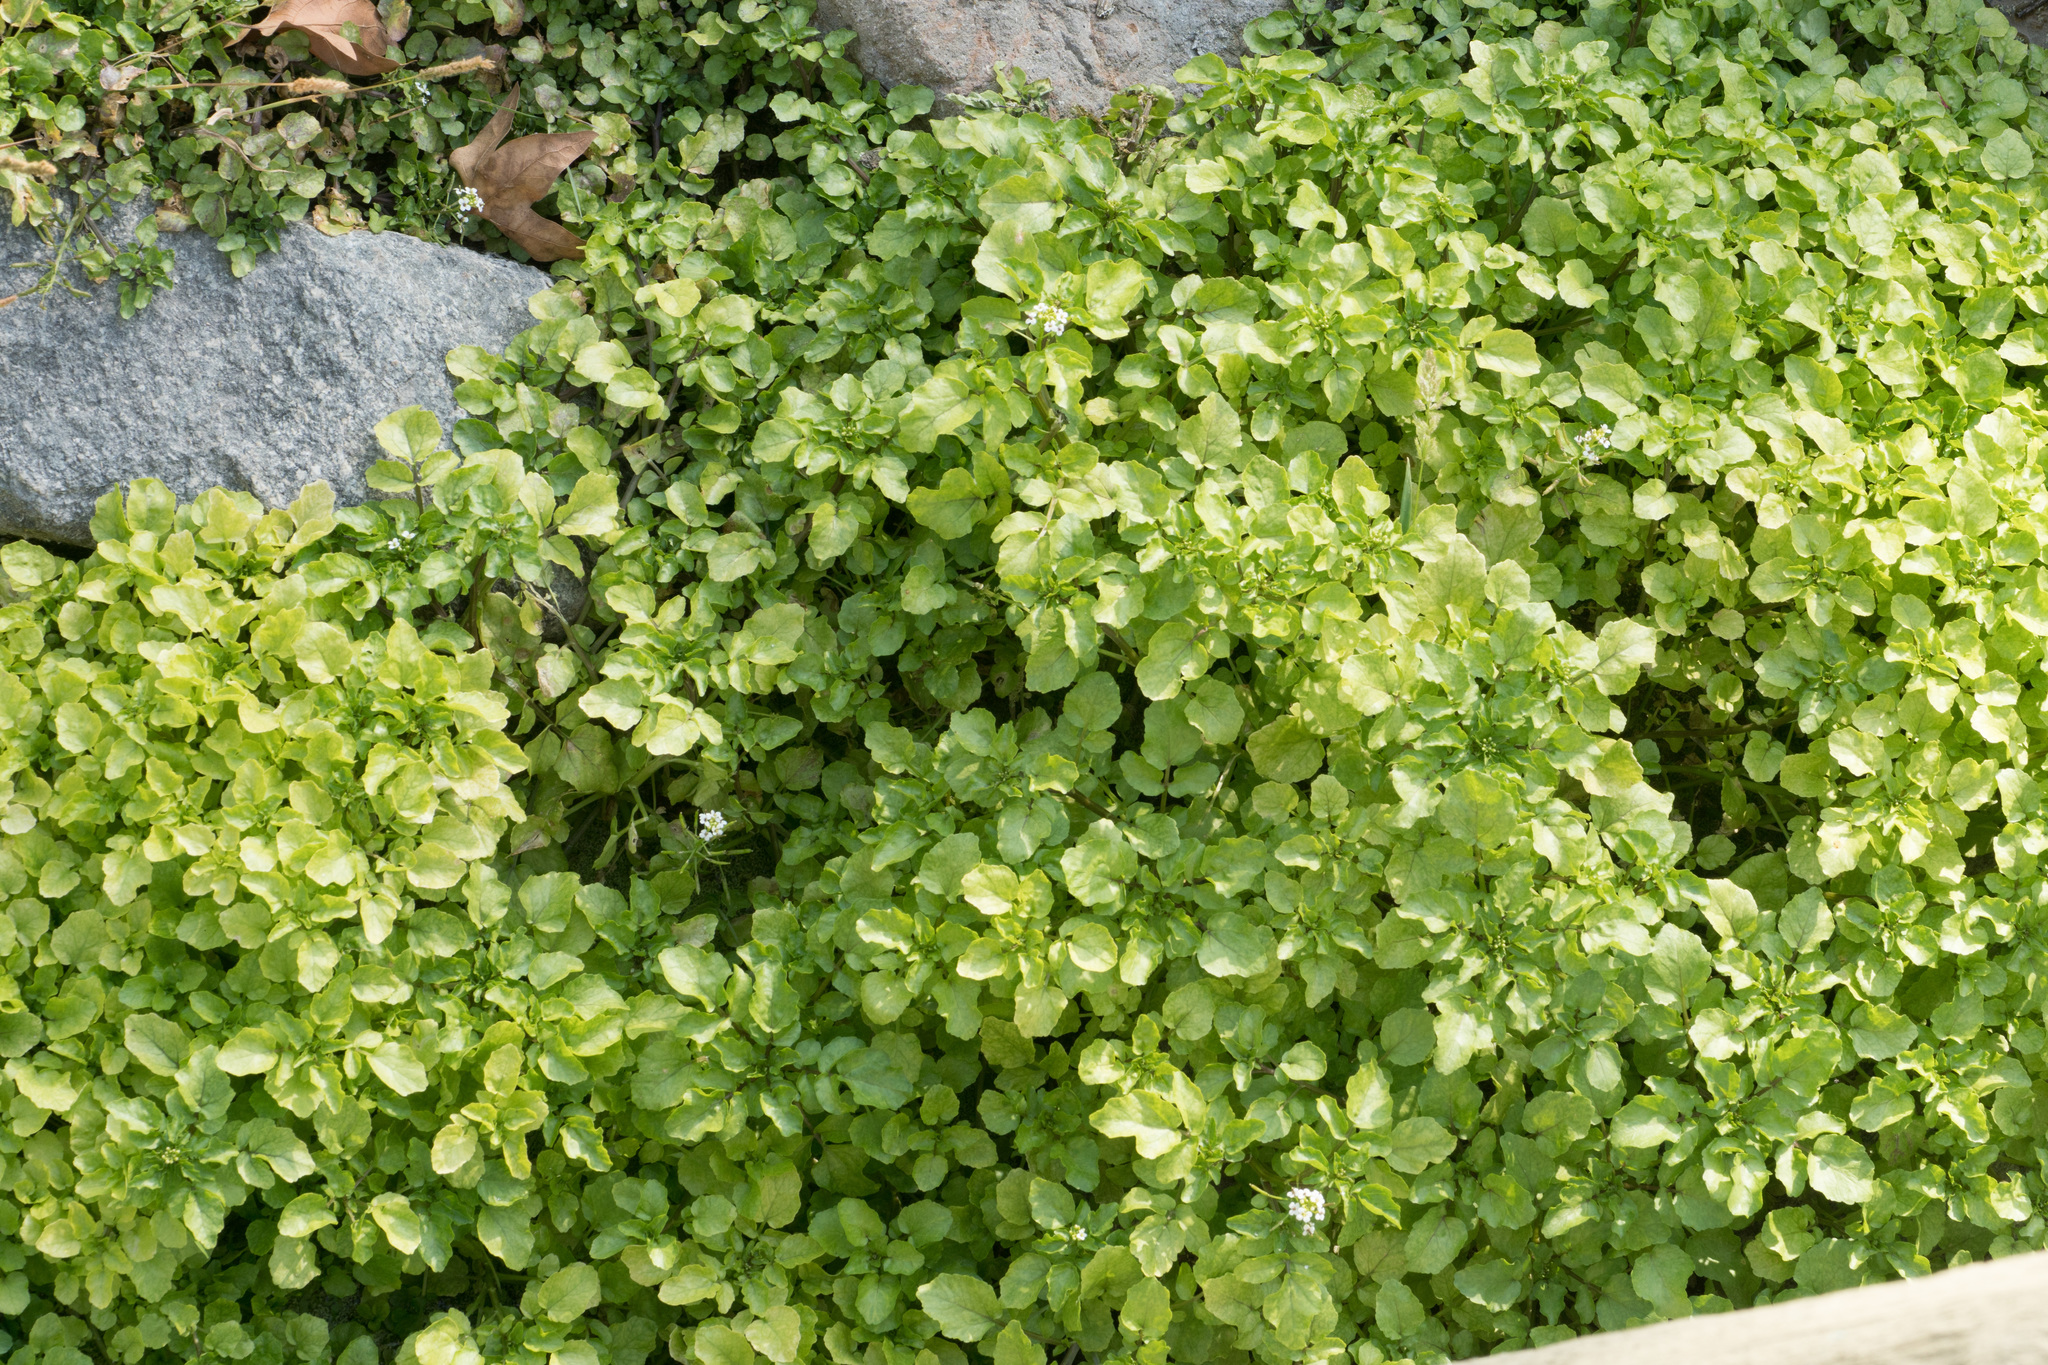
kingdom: Plantae
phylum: Tracheophyta
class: Magnoliopsida
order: Brassicales
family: Brassicaceae
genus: Nasturtium
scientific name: Nasturtium officinale
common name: Watercress
